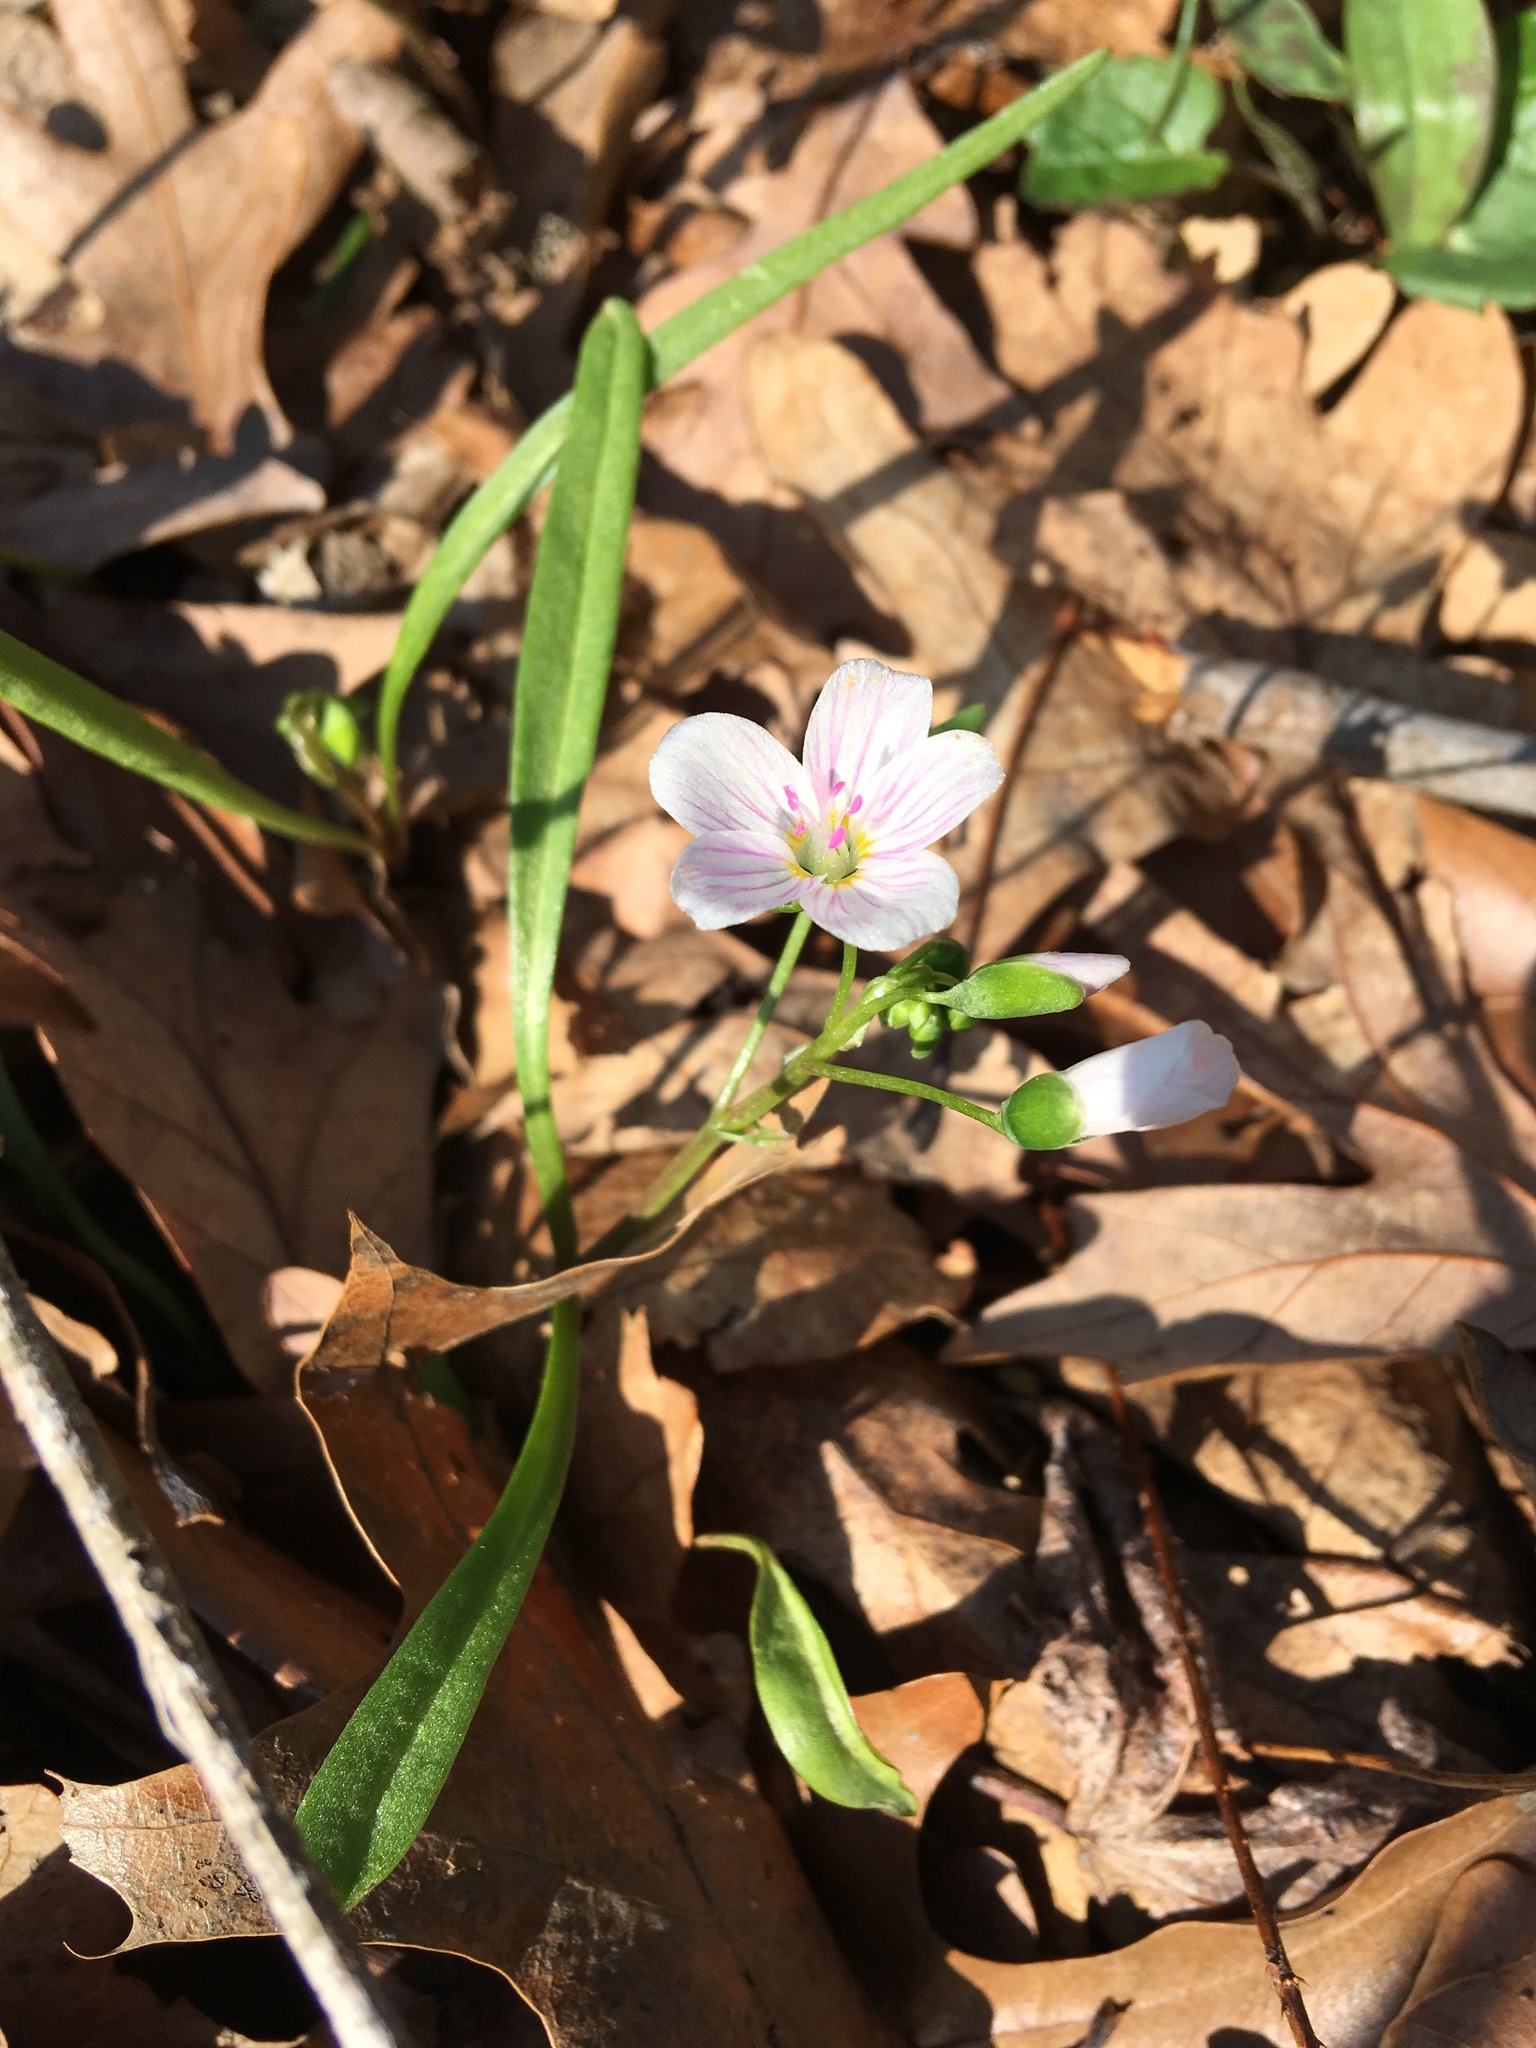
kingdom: Plantae
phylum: Tracheophyta
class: Magnoliopsida
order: Caryophyllales
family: Montiaceae
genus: Claytonia
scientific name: Claytonia virginica
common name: Virginia springbeauty
